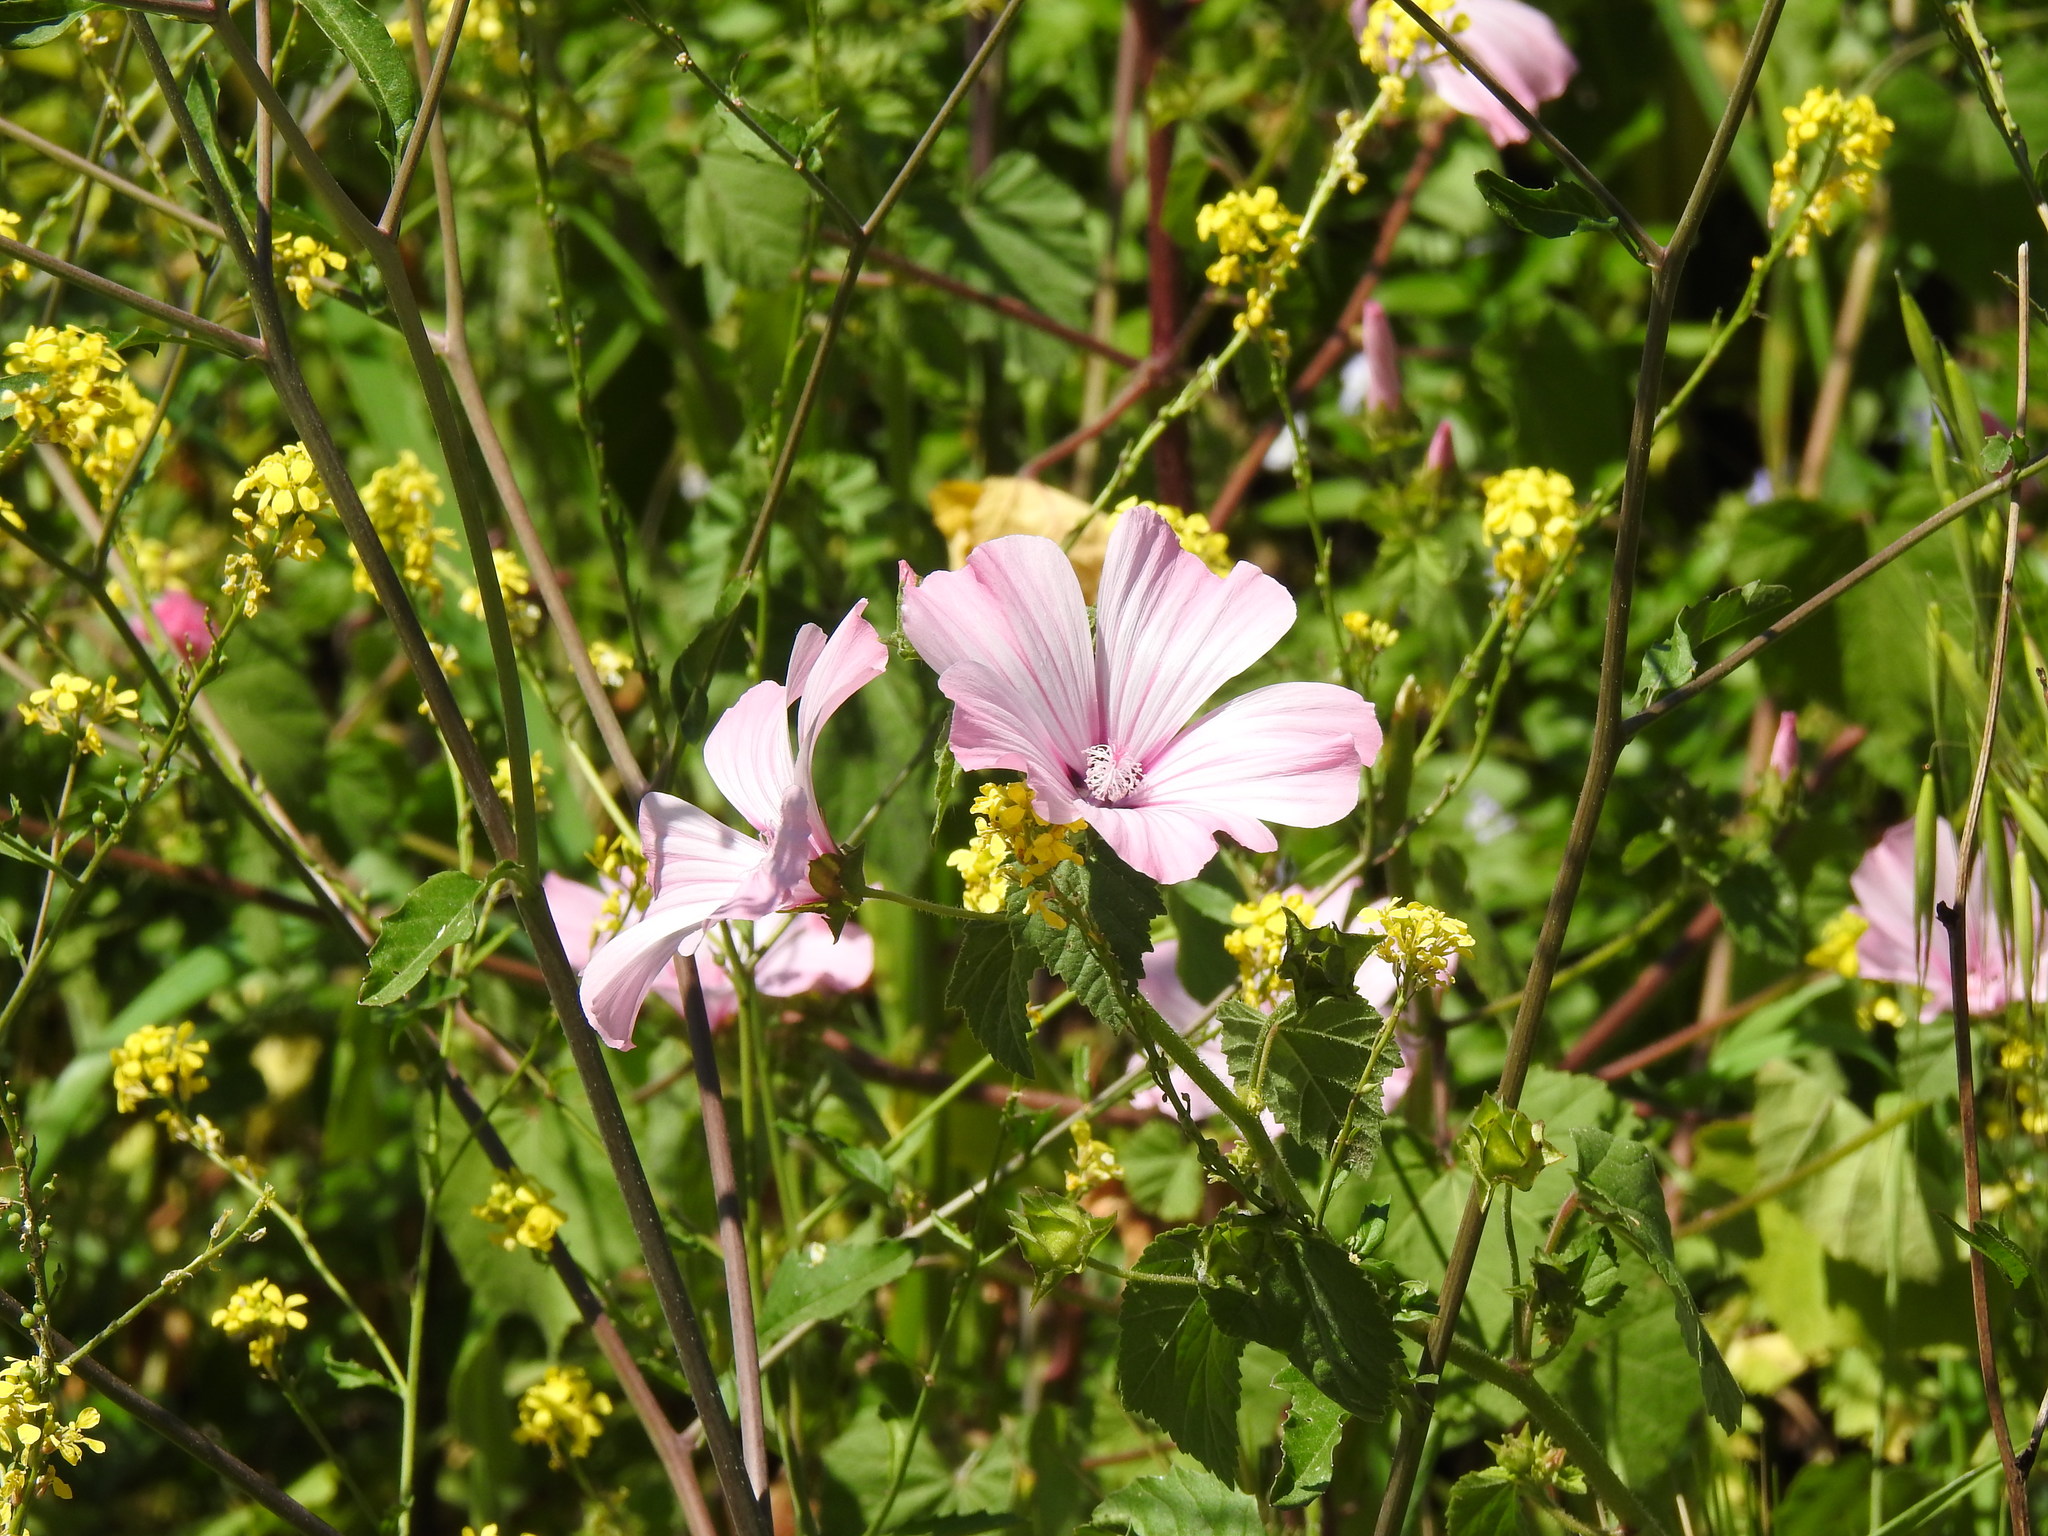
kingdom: Plantae
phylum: Tracheophyta
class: Magnoliopsida
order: Malvales
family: Malvaceae
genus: Malva
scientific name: Malva trimestris
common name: Royal mallow
